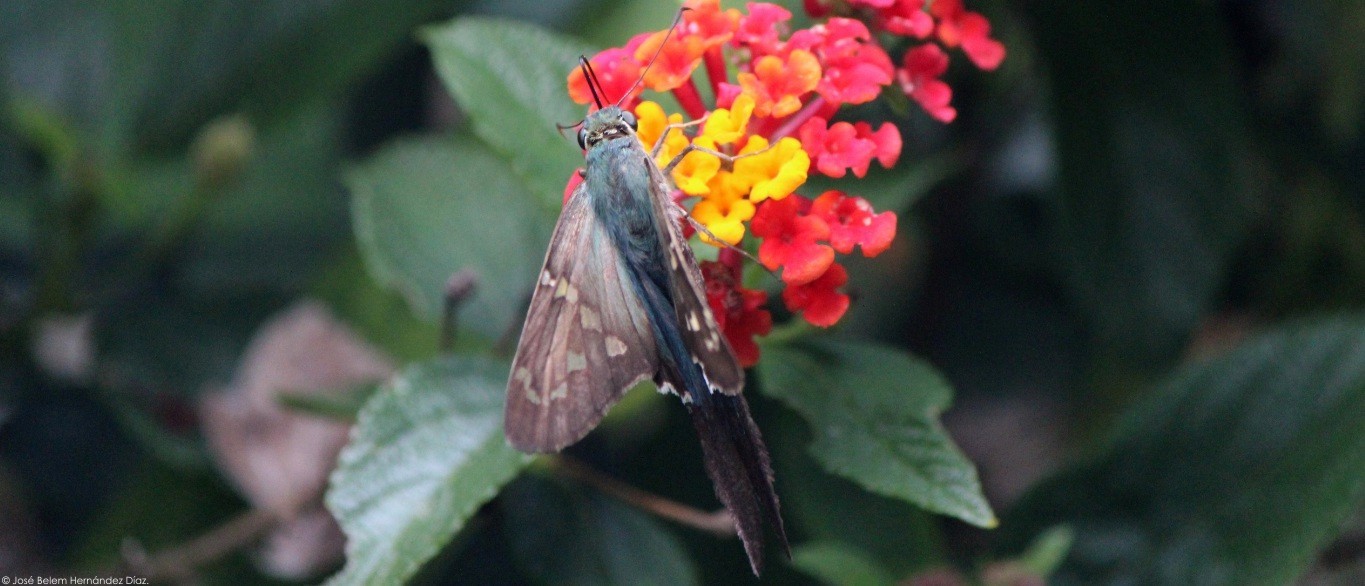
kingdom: Animalia
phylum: Arthropoda
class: Insecta
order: Lepidoptera
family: Hesperiidae
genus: Urbanus
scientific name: Urbanus proteus
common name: Long-tailed skipper
